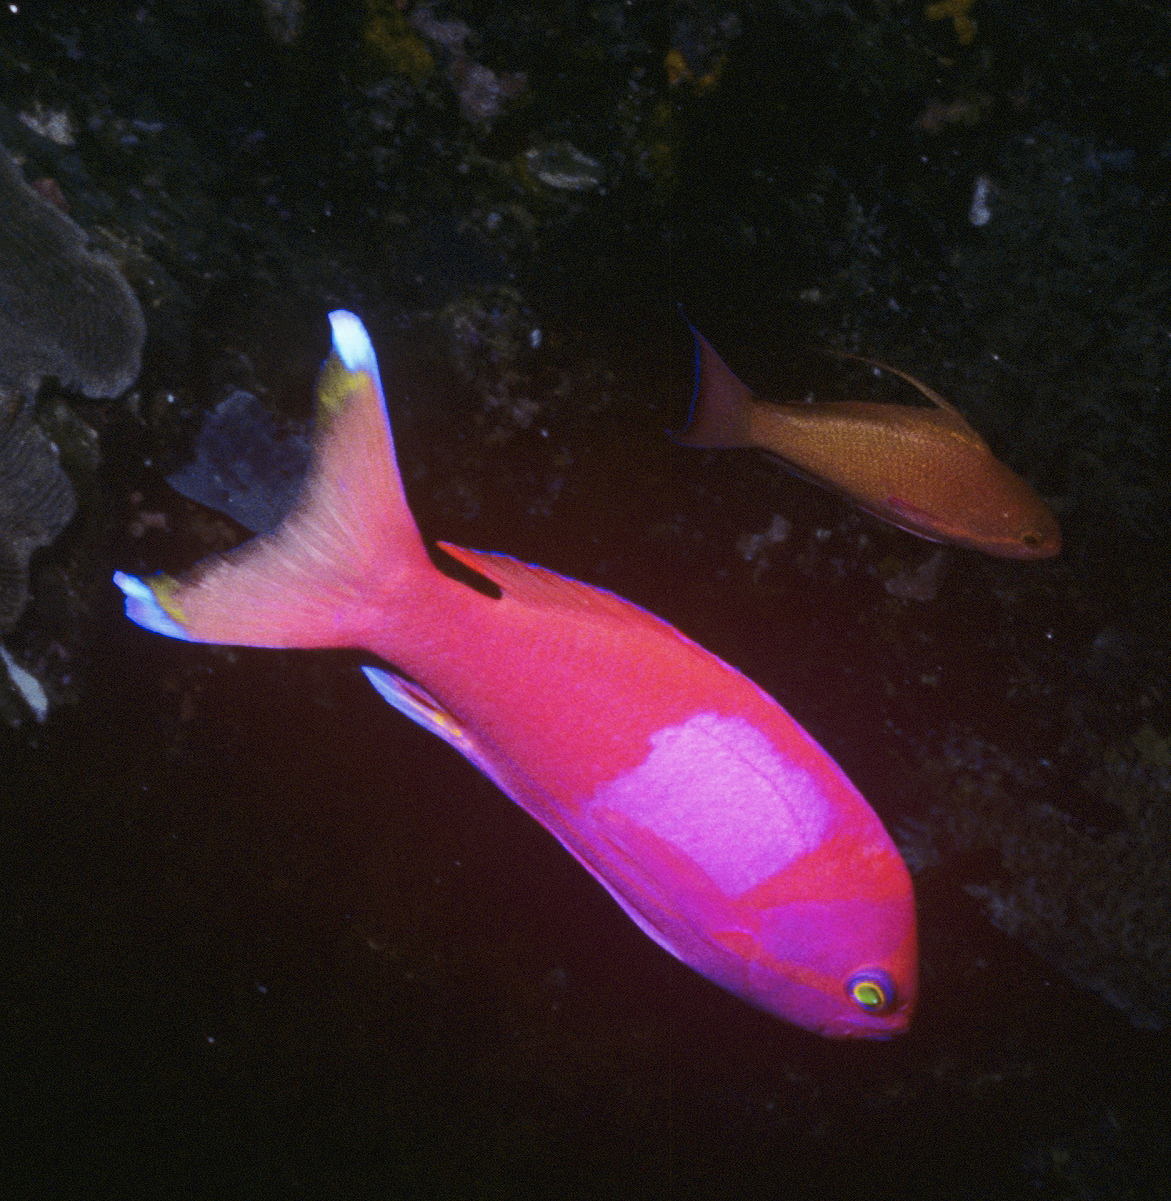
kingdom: Animalia
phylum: Chordata
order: Perciformes
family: Serranidae
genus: Pseudanthias
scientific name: Pseudanthias pleurotaenia
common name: Mirror basslet
